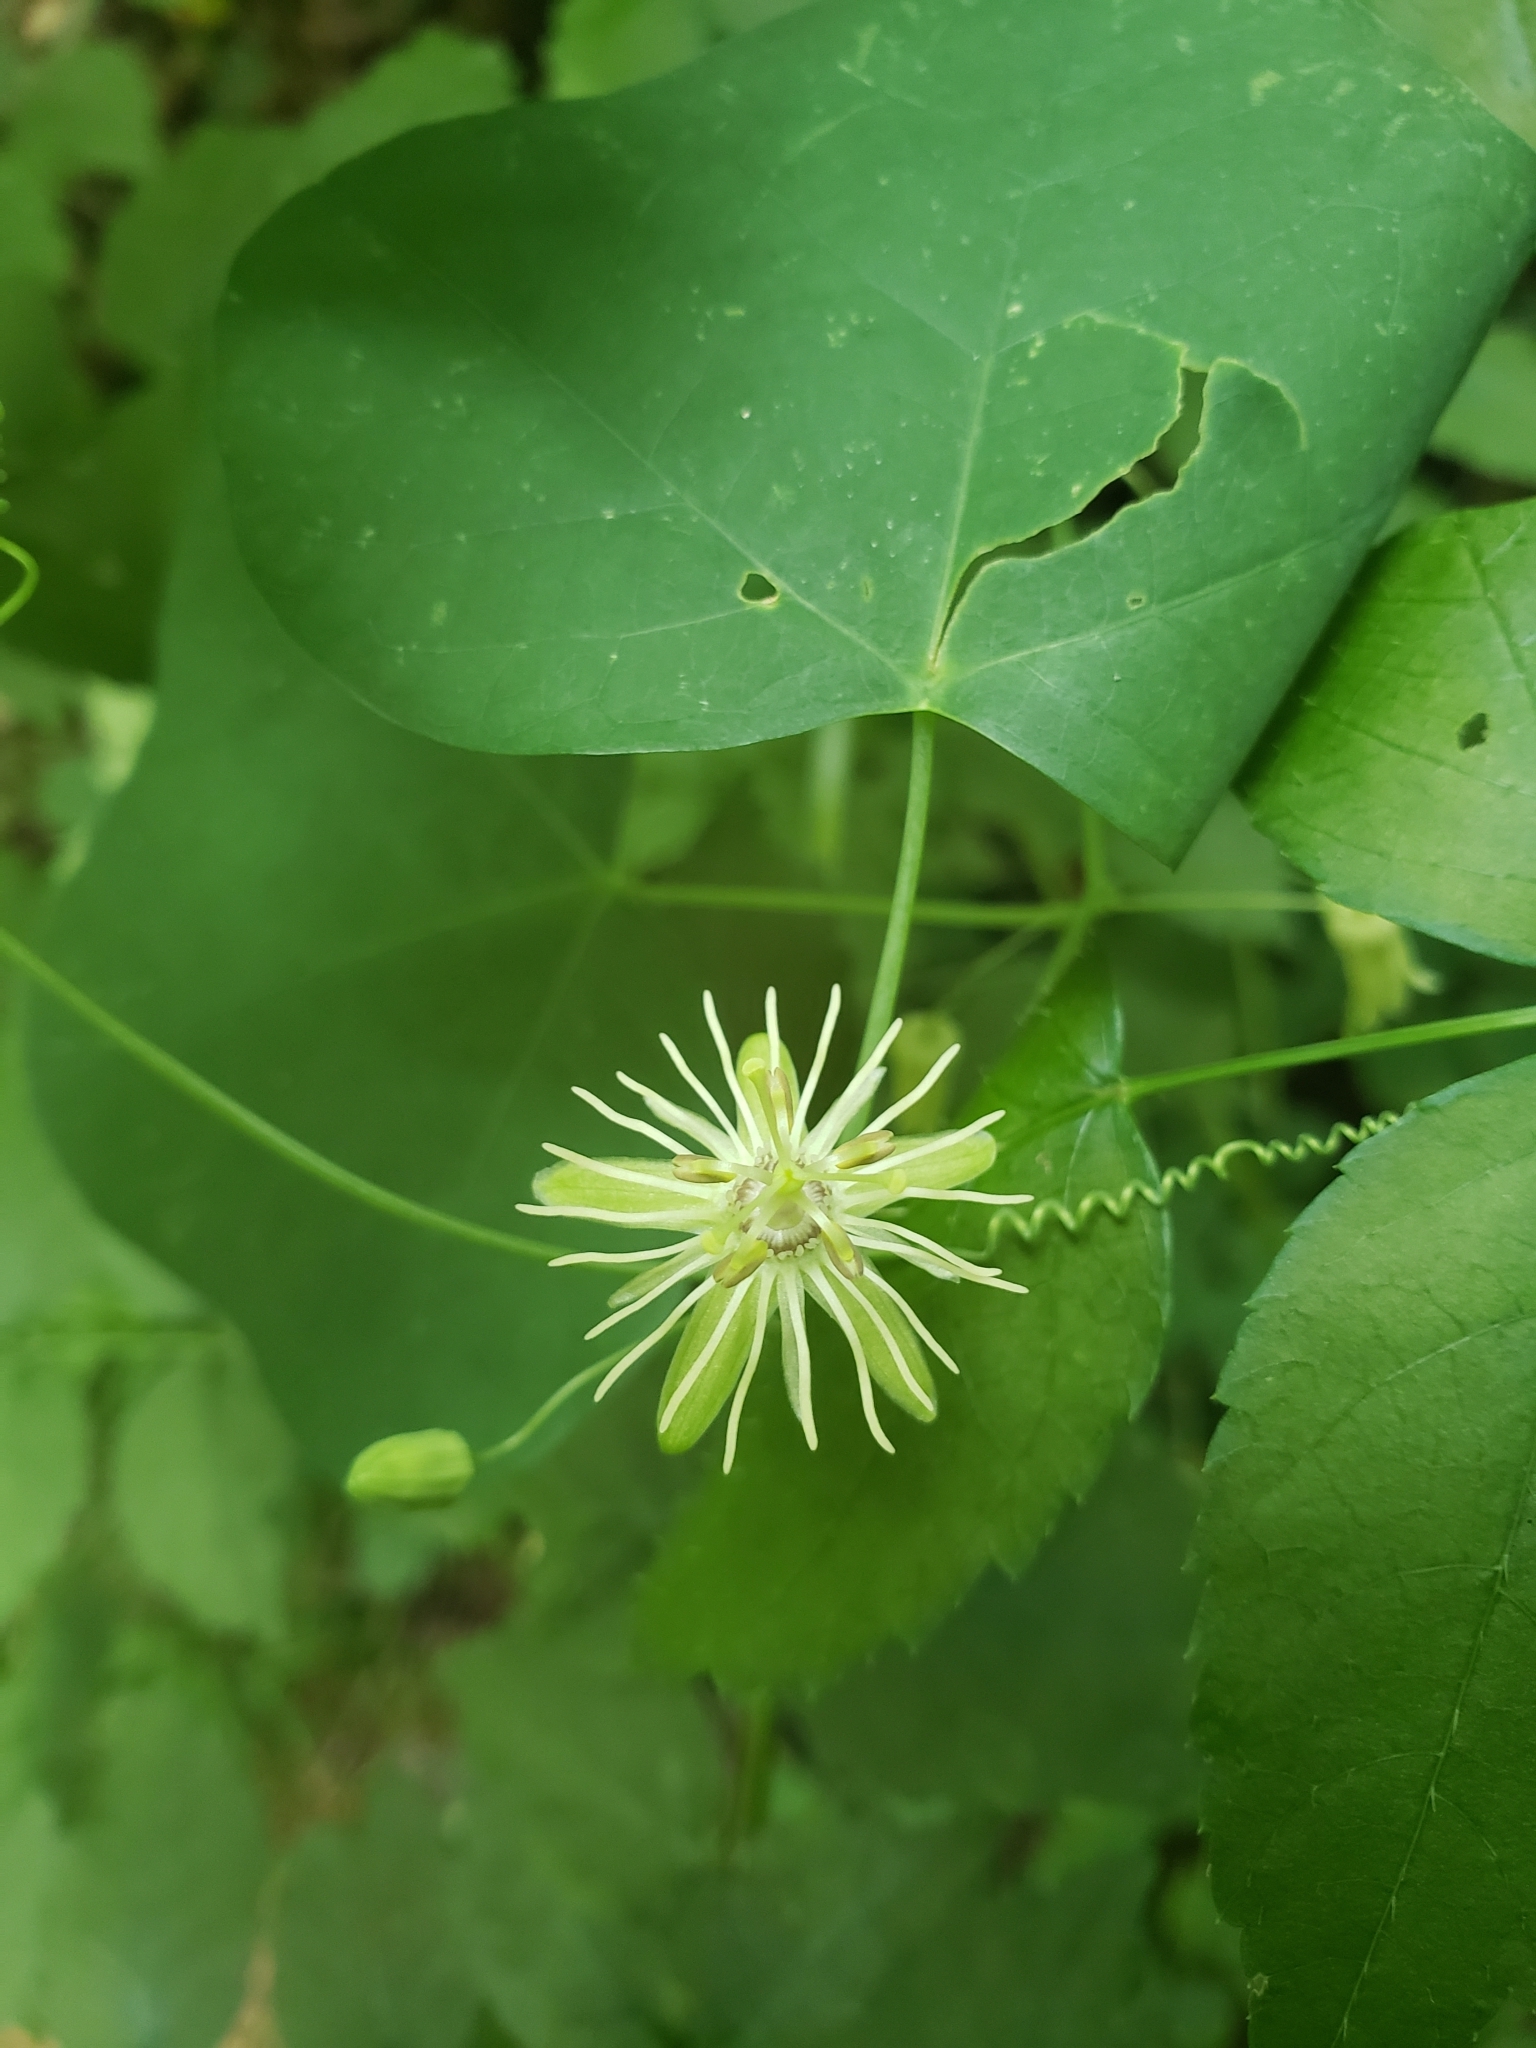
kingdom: Plantae
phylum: Tracheophyta
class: Magnoliopsida
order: Malpighiales
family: Passifloraceae
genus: Passiflora
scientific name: Passiflora lutea
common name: Yellow passionflower
